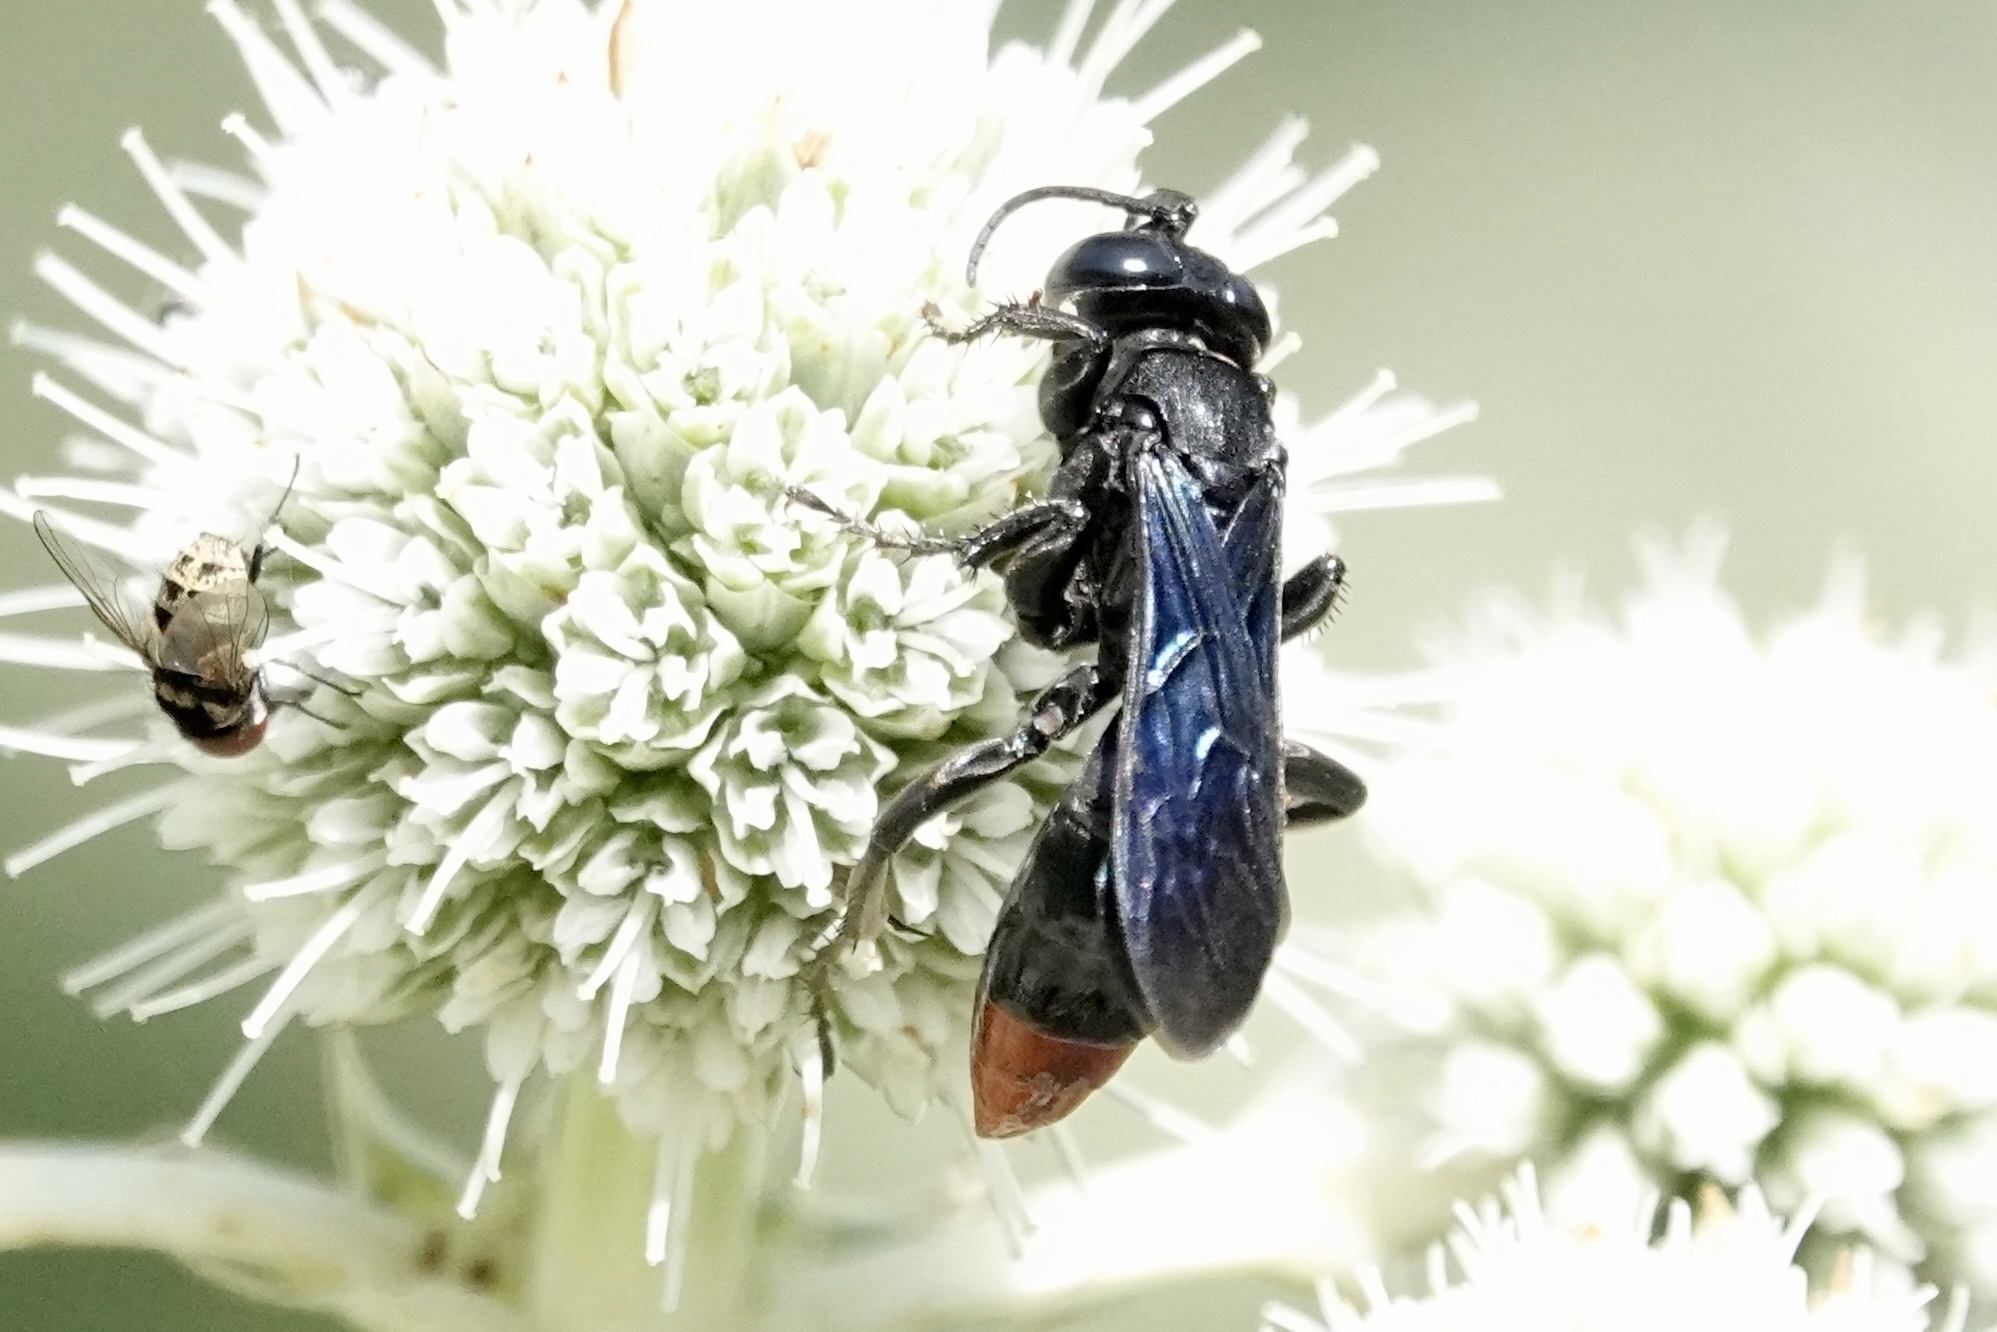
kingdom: Animalia
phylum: Arthropoda
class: Insecta
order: Hymenoptera
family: Crabronidae
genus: Larra
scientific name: Larra analis
